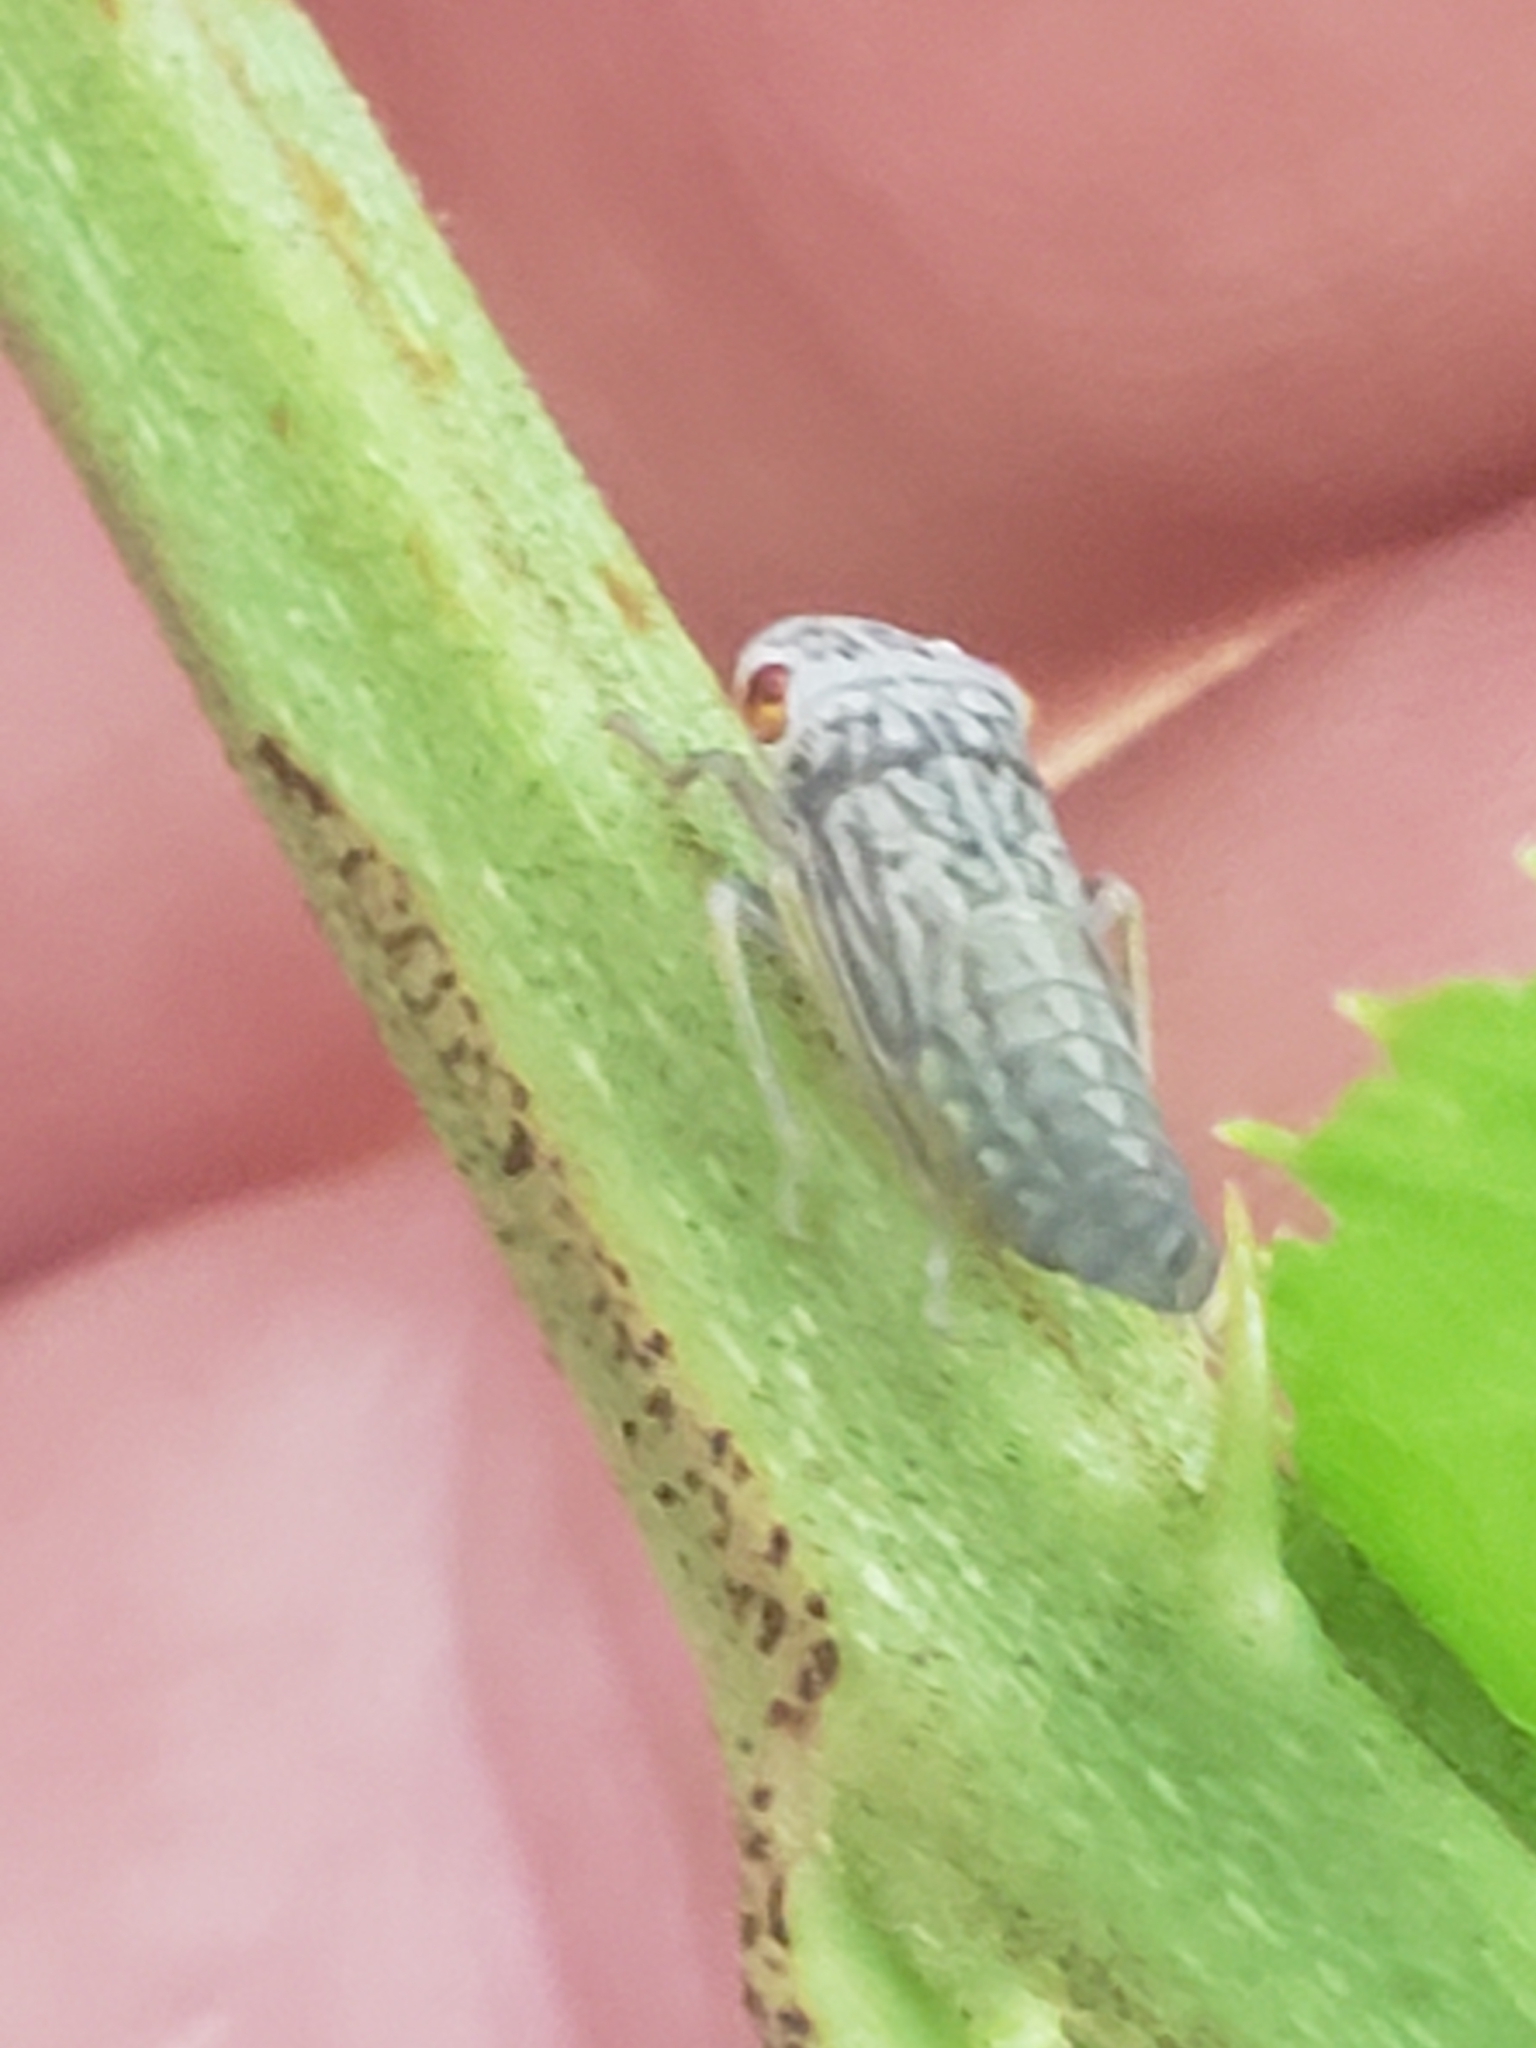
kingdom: Animalia
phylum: Arthropoda
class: Insecta
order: Hemiptera
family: Cicadellidae
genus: Oncometopia
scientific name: Oncometopia orbona
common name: Broad-headed sharpshooter
